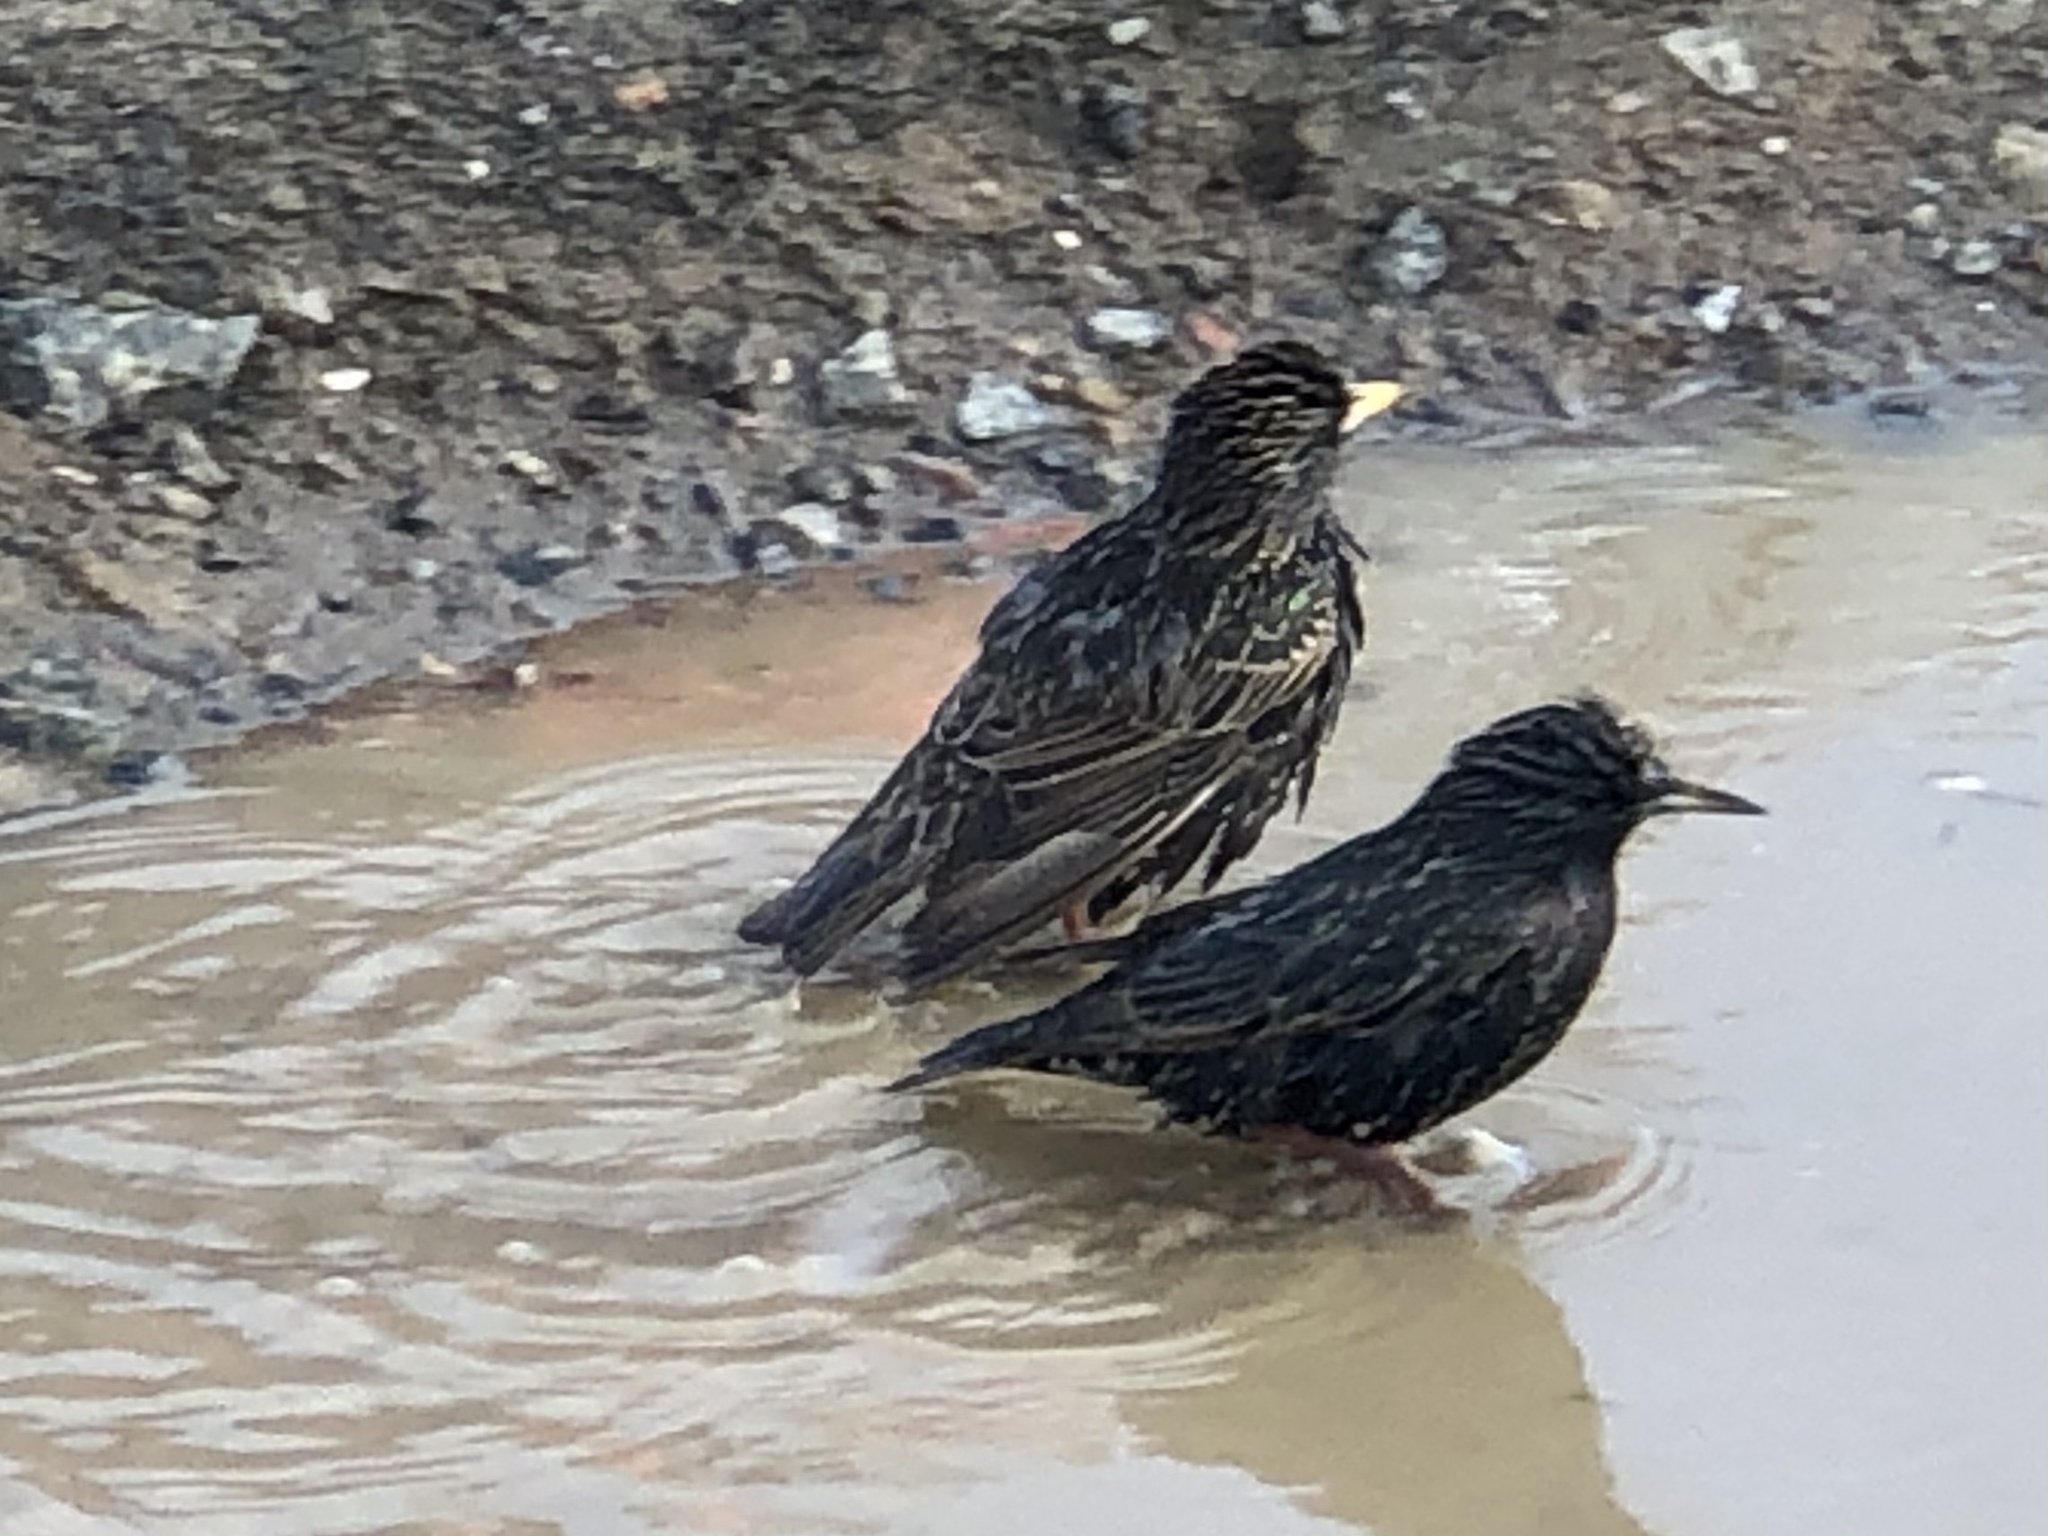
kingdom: Animalia
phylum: Chordata
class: Aves
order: Passeriformes
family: Sturnidae
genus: Sturnus
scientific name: Sturnus vulgaris
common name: Common starling
